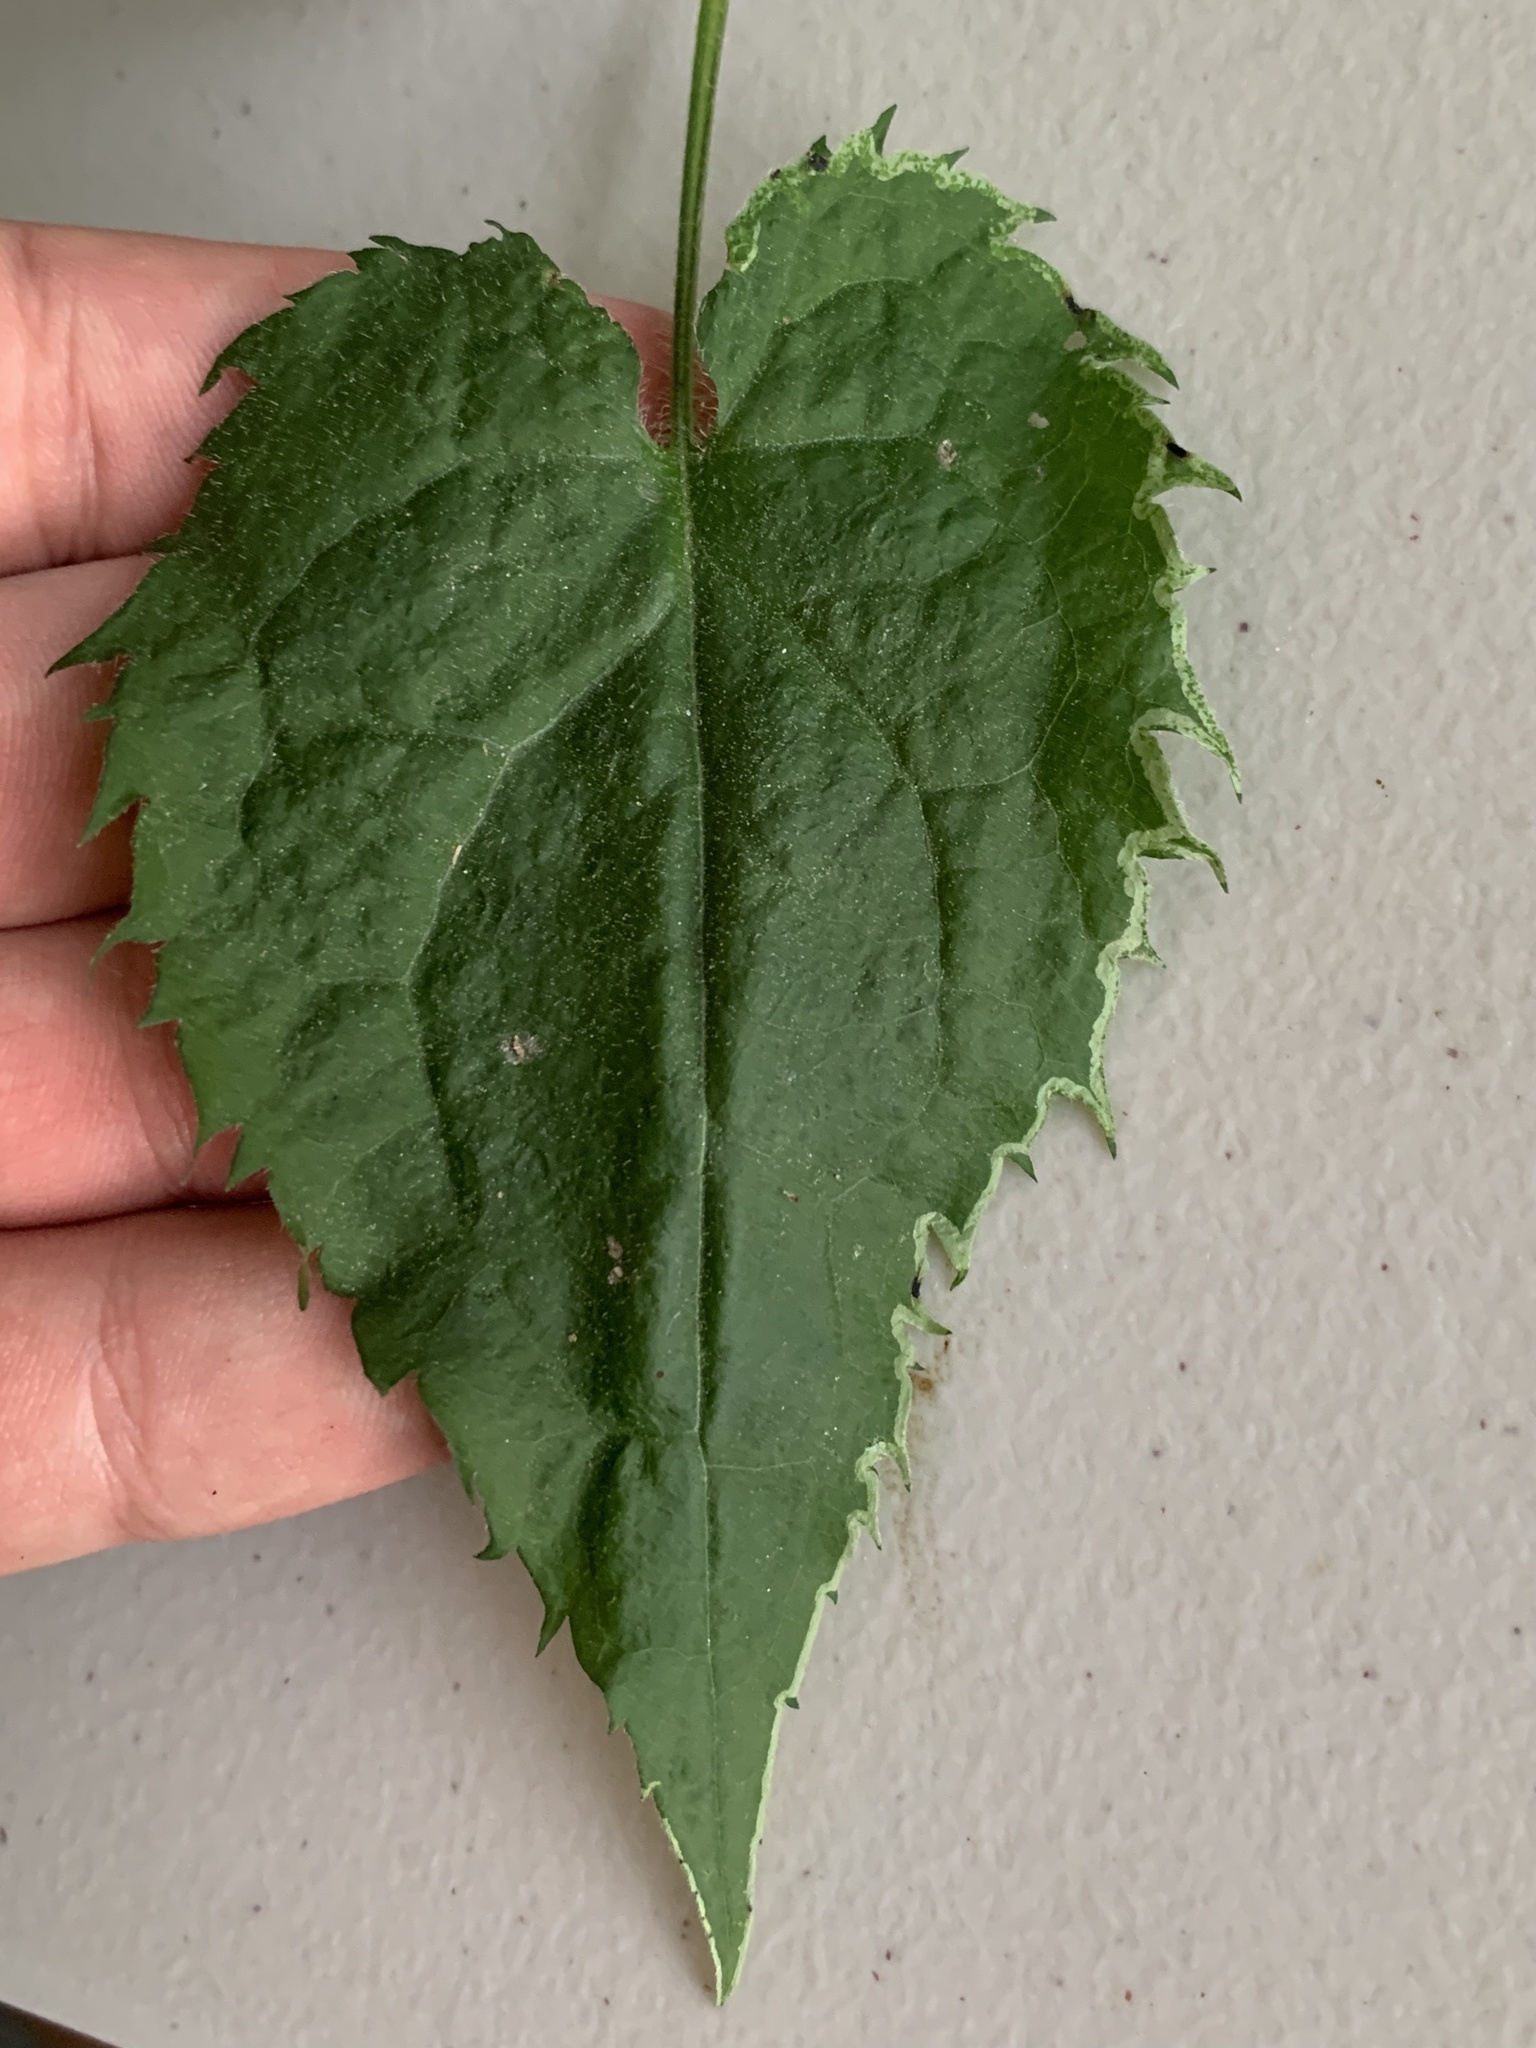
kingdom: Animalia
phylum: Arthropoda
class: Insecta
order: Diptera
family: Agromyzidae
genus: Ophiomyia
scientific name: Ophiomyia parda
